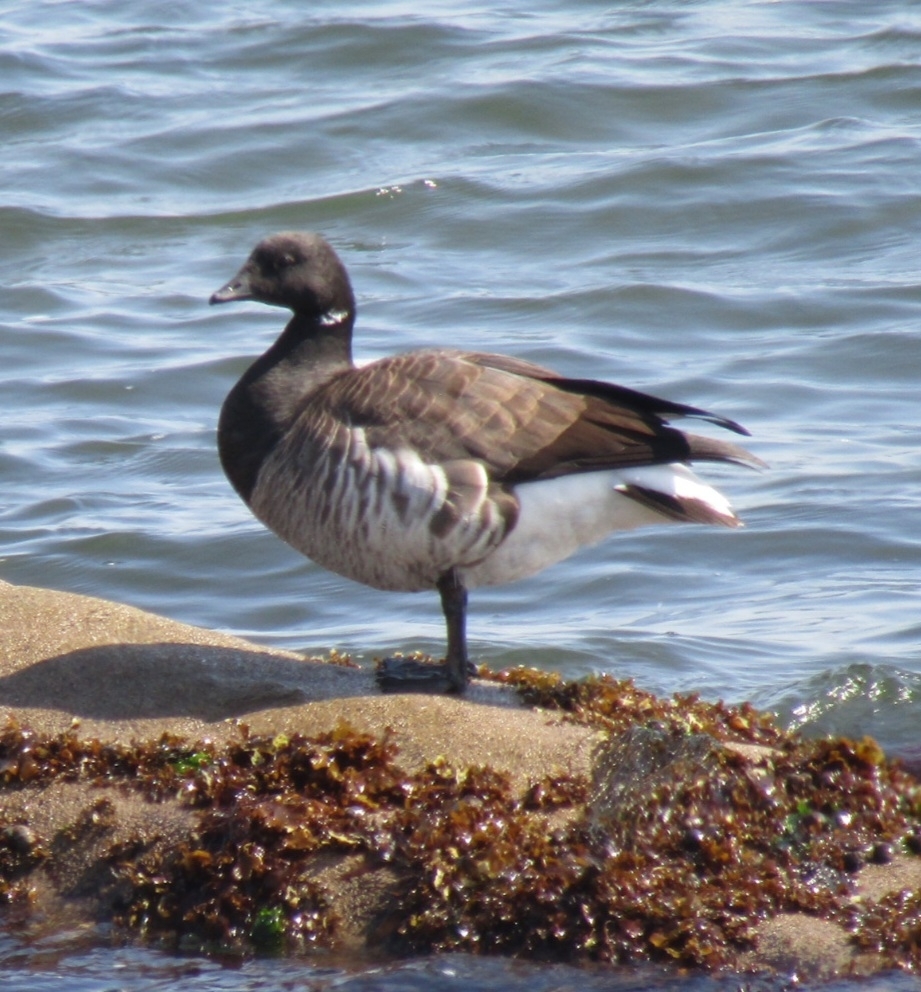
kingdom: Animalia
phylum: Chordata
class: Aves
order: Anseriformes
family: Anatidae
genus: Branta
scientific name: Branta bernicla
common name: Brant goose
